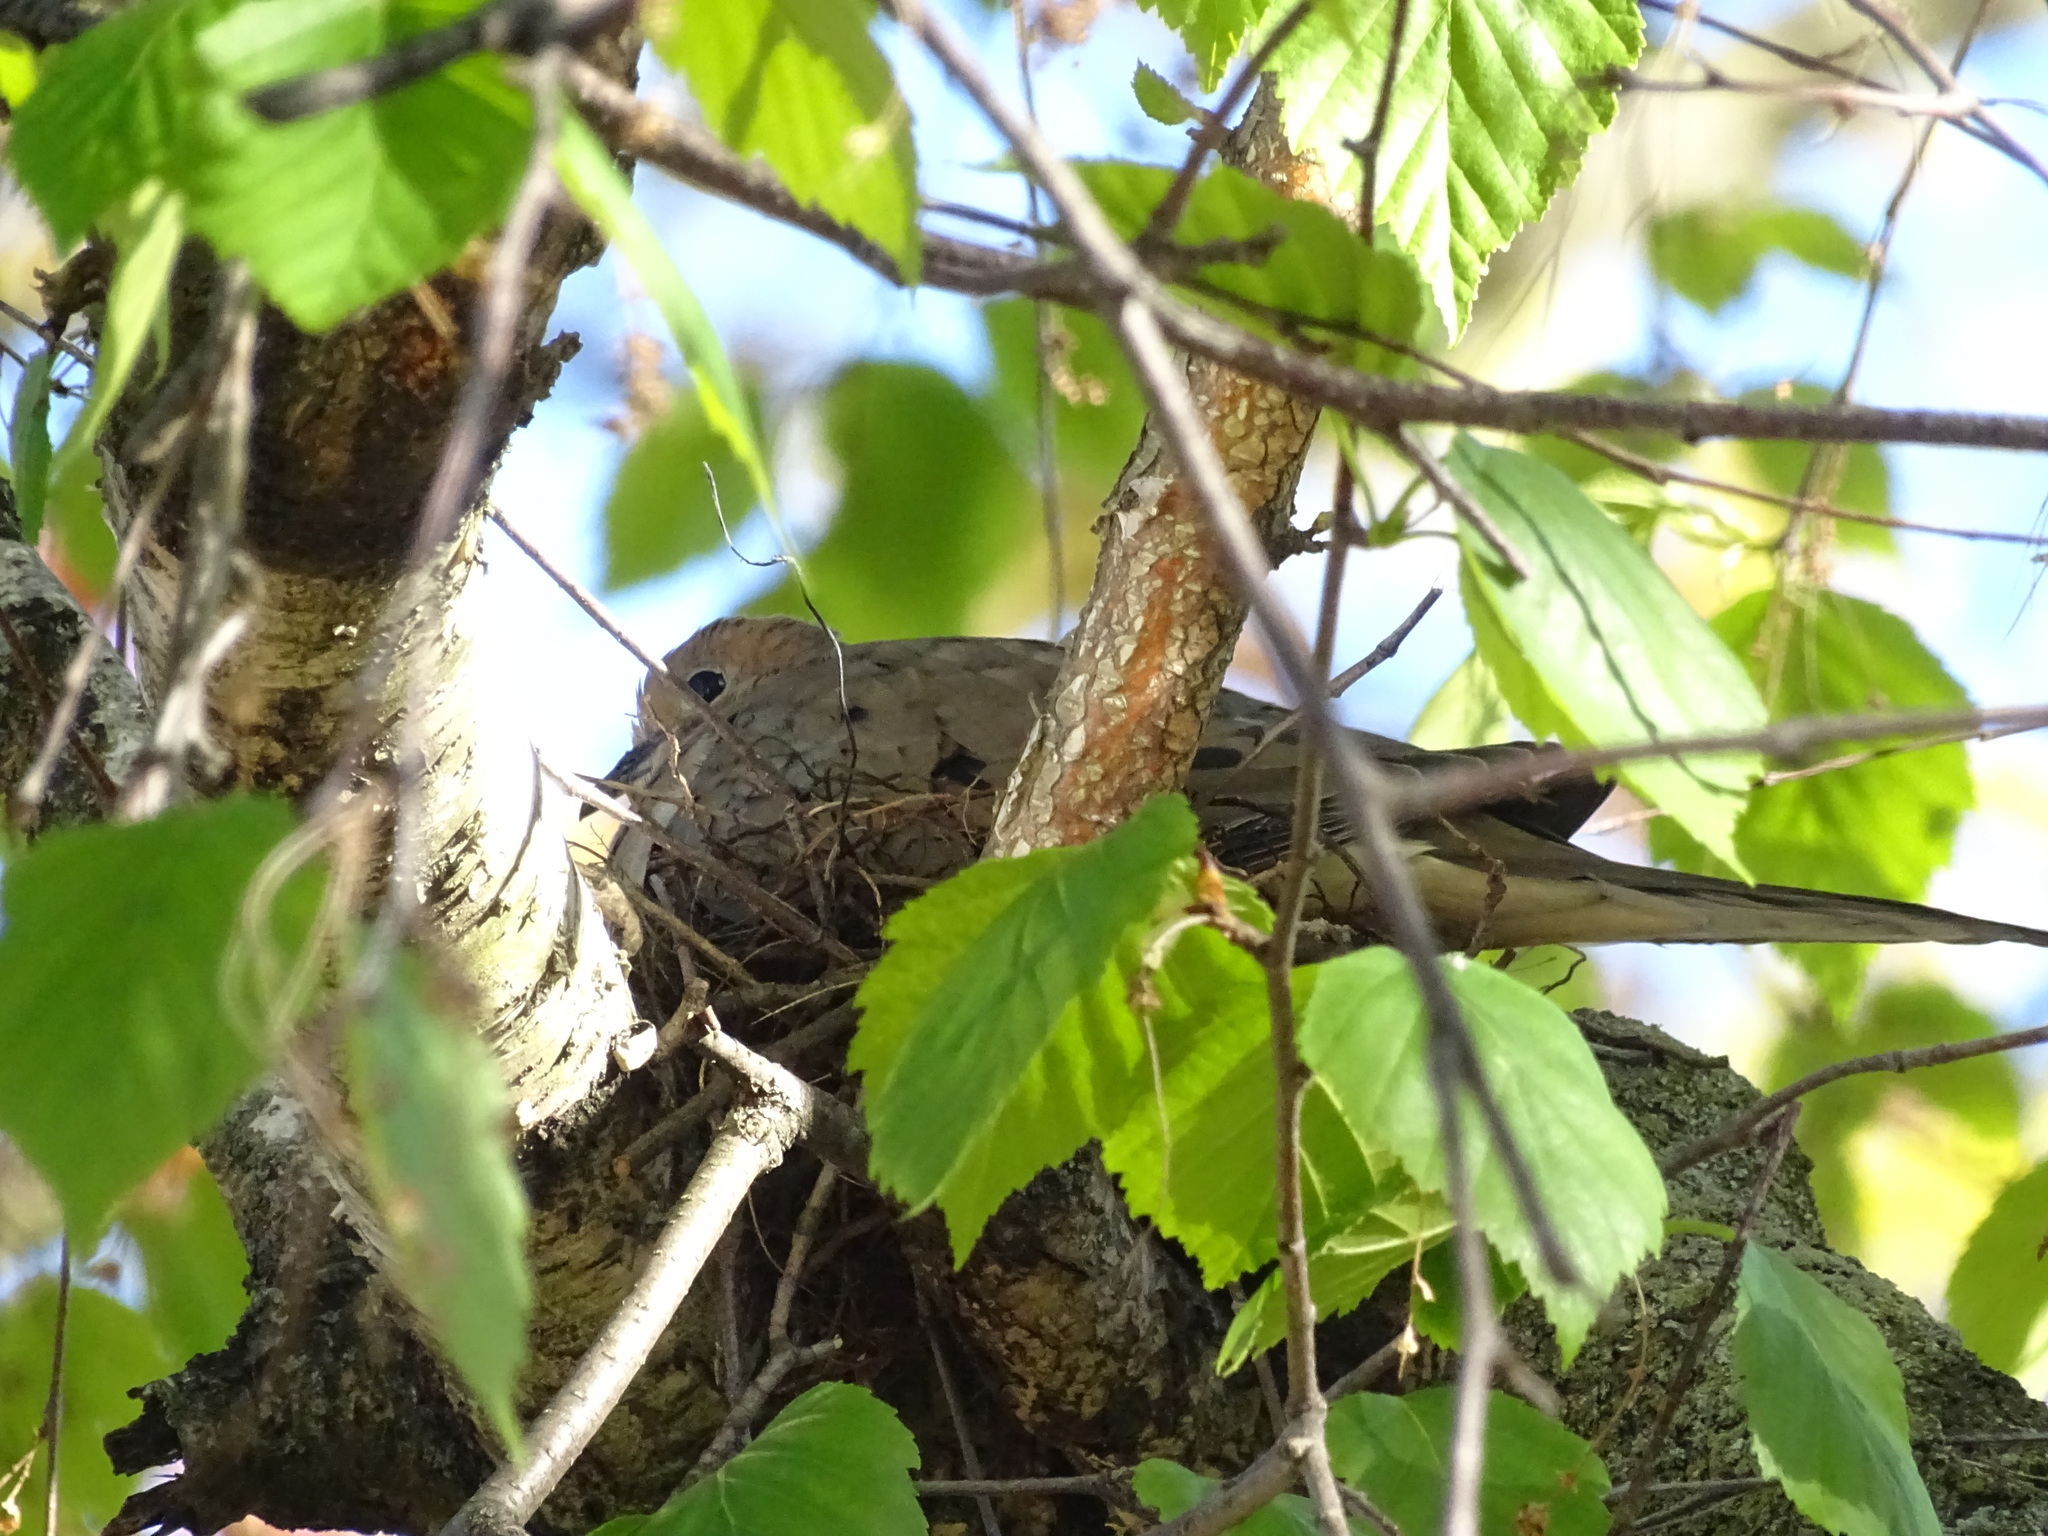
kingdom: Animalia
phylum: Chordata
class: Aves
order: Columbiformes
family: Columbidae
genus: Zenaida
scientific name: Zenaida macroura
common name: Mourning dove
